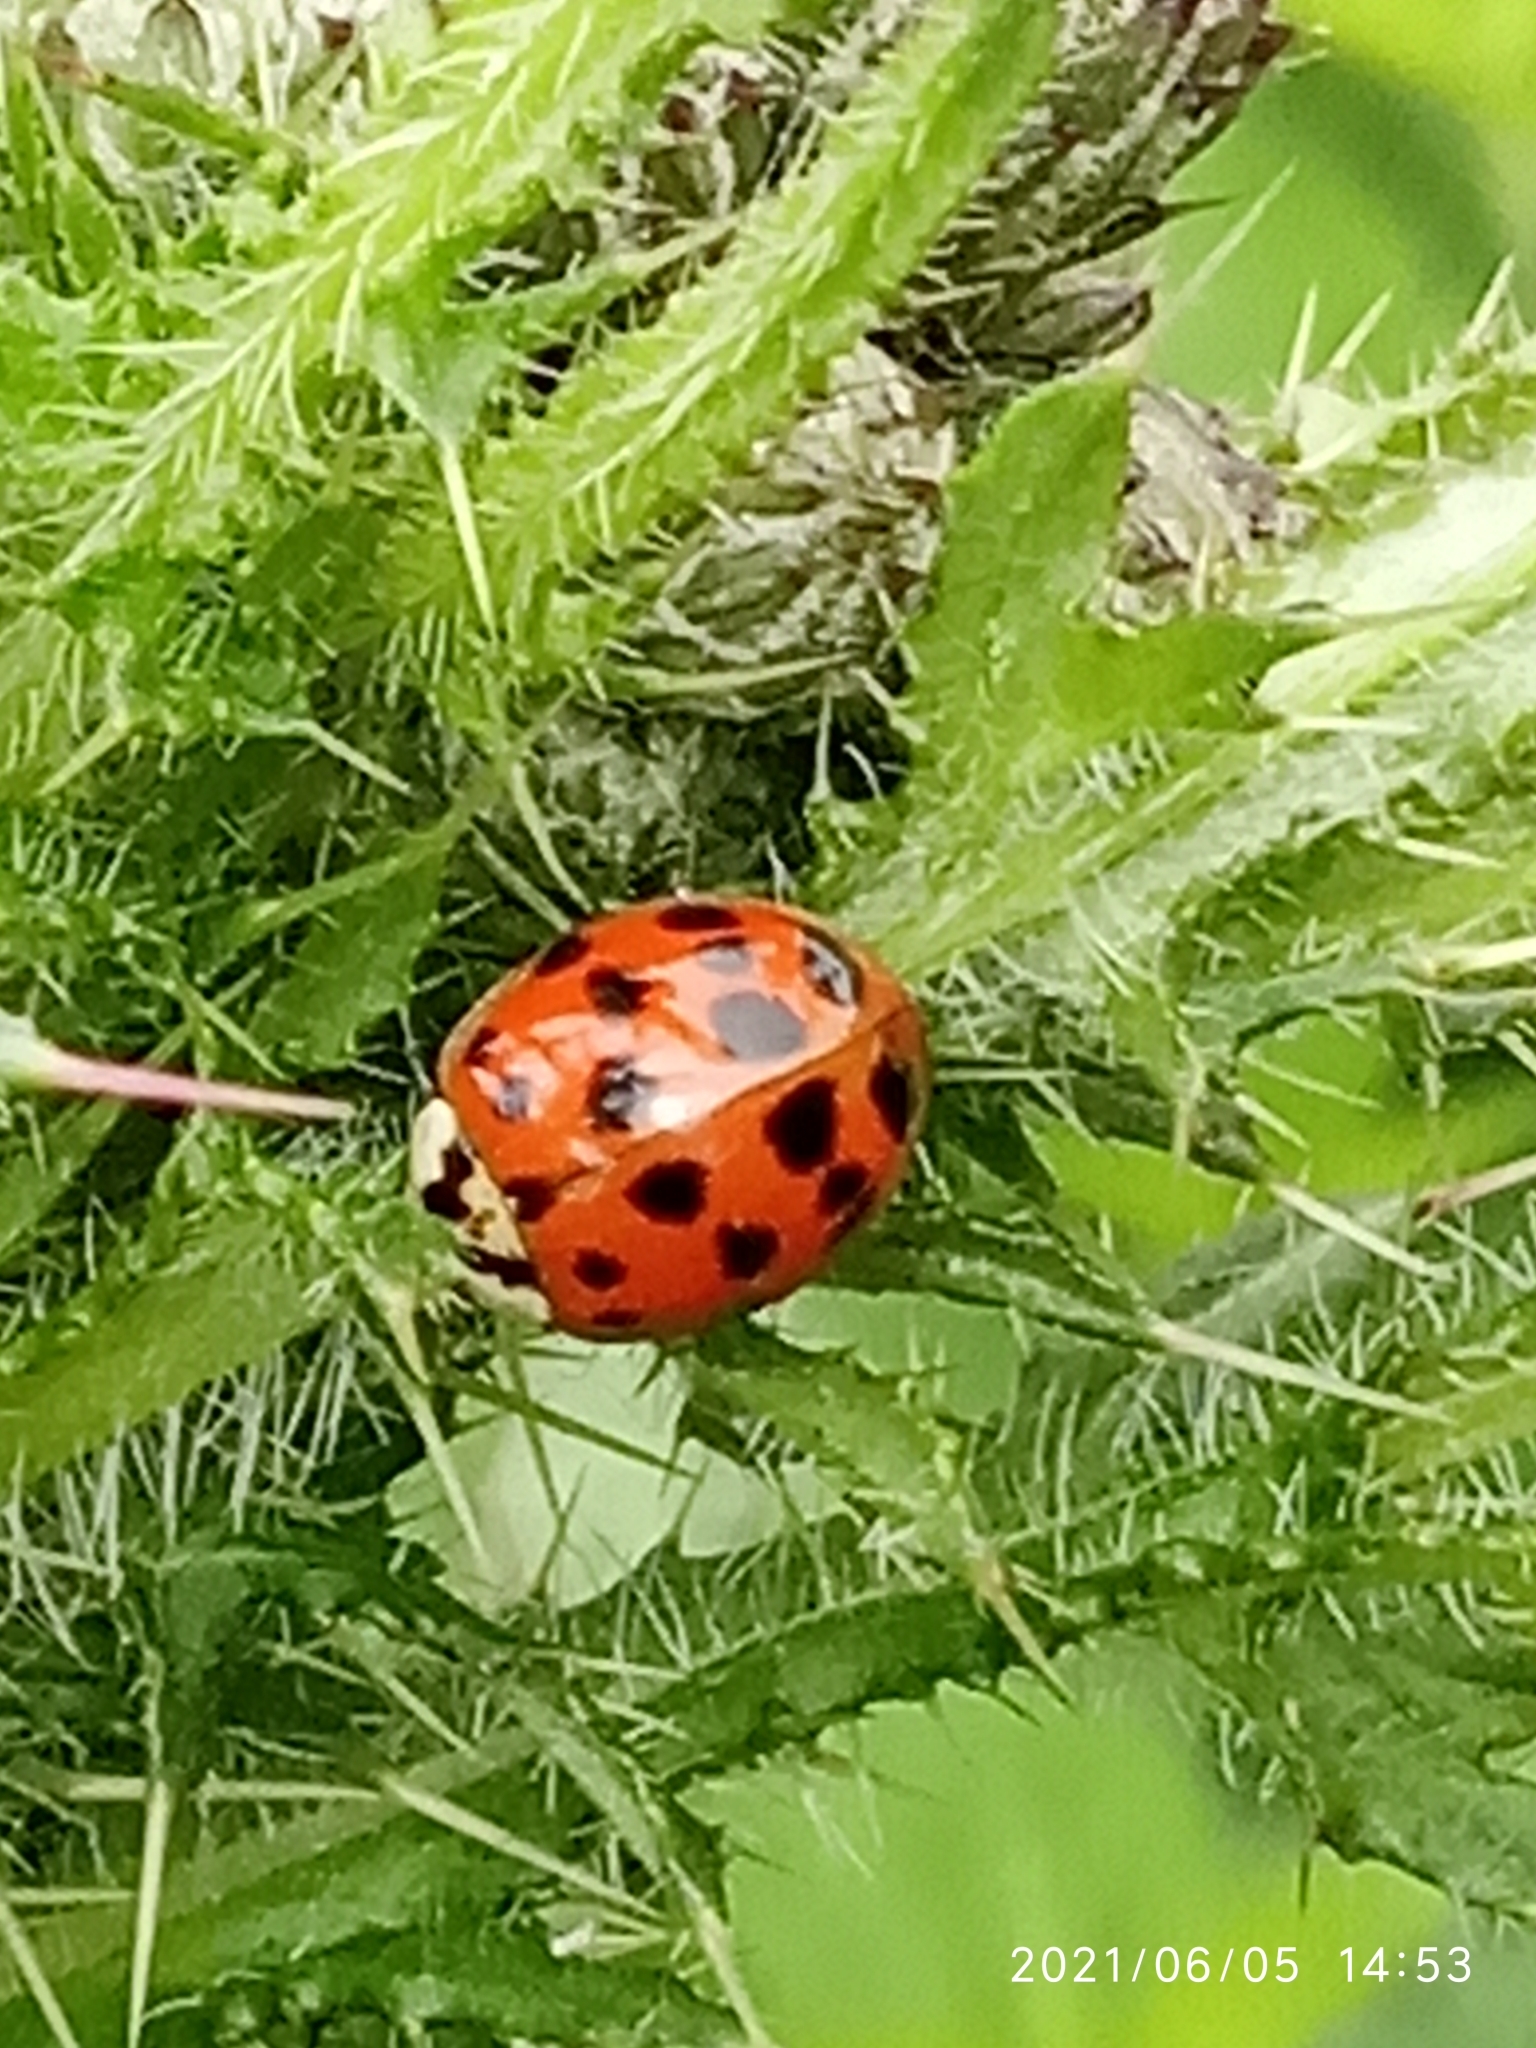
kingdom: Animalia
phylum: Arthropoda
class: Insecta
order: Coleoptera
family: Coccinellidae
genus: Harmonia
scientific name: Harmonia axyridis
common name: Harlequin ladybird
